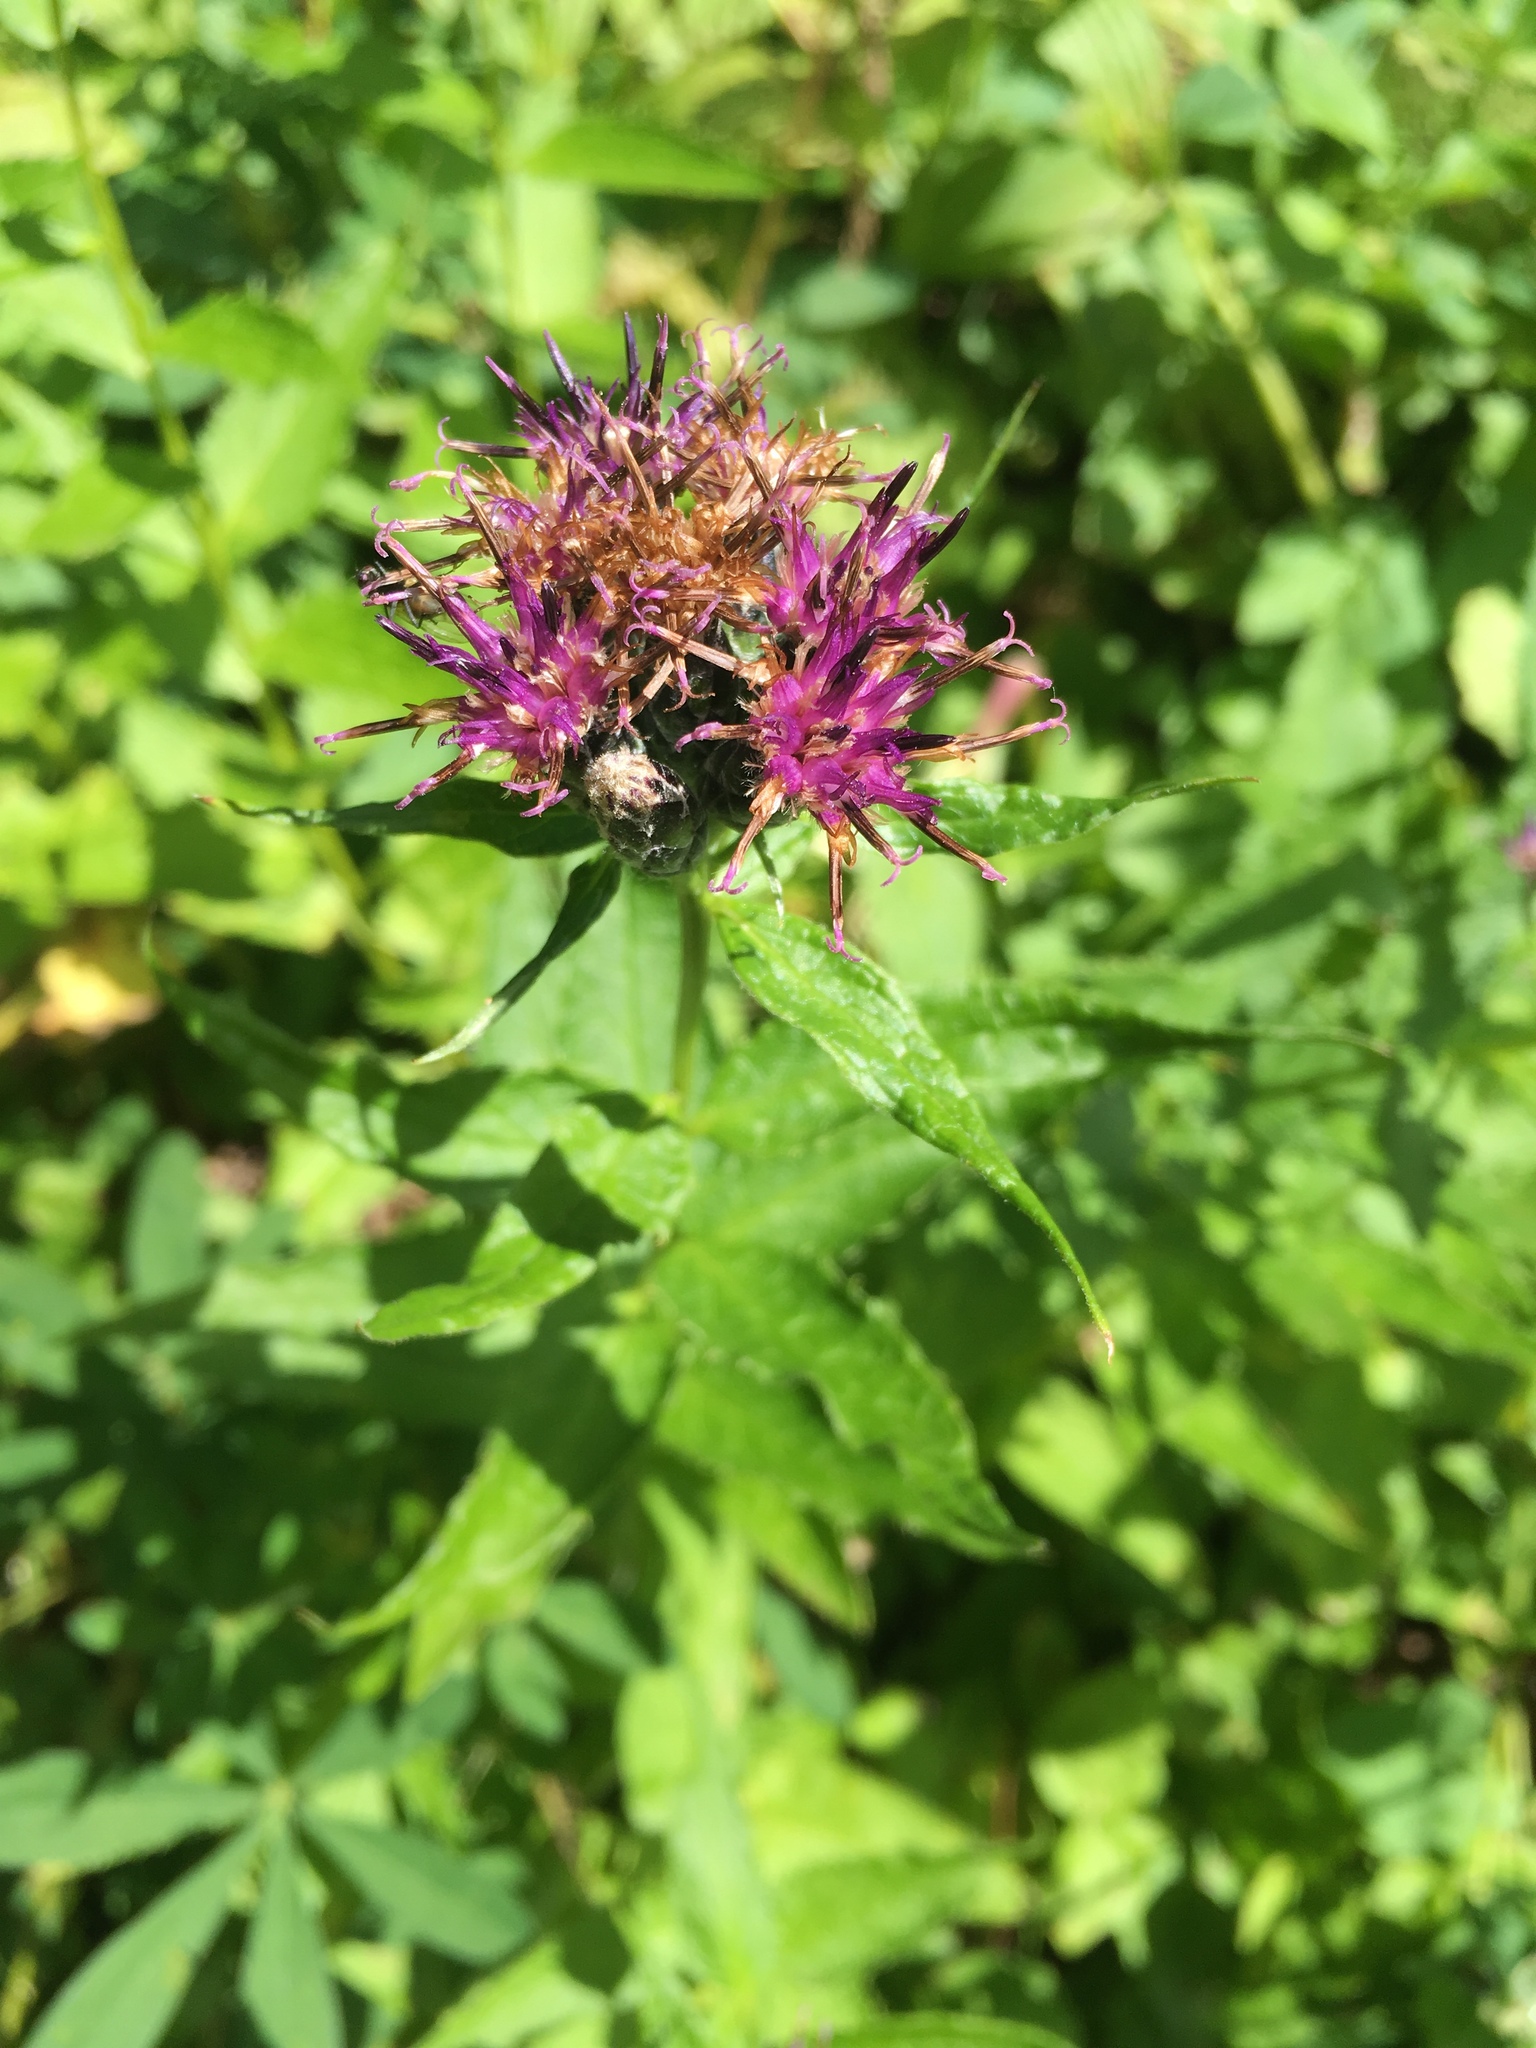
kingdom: Plantae
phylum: Tracheophyta
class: Magnoliopsida
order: Asterales
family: Asteraceae
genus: Saussurea
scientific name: Saussurea americana
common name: American saw-wort
